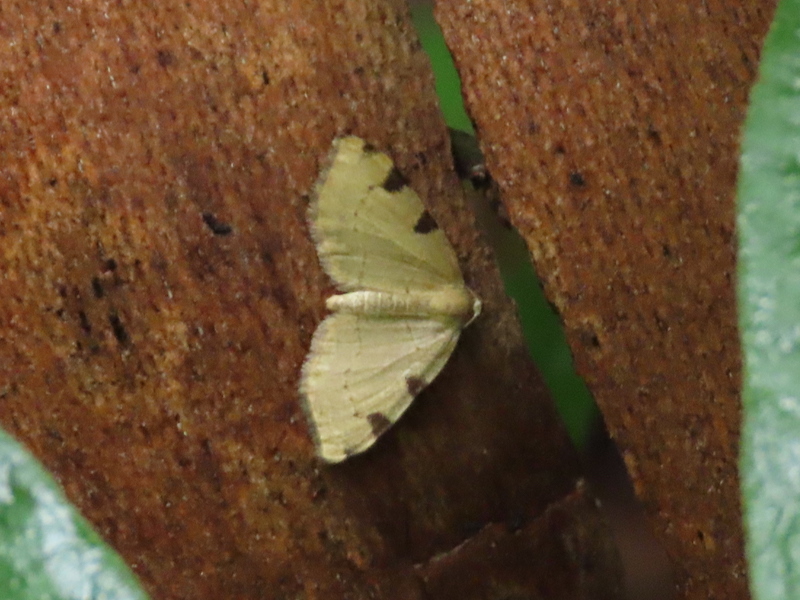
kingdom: Animalia
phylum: Arthropoda
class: Insecta
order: Lepidoptera
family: Geometridae
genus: Heterophleps
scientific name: Heterophleps triguttaria
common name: Three-spotted fillip
